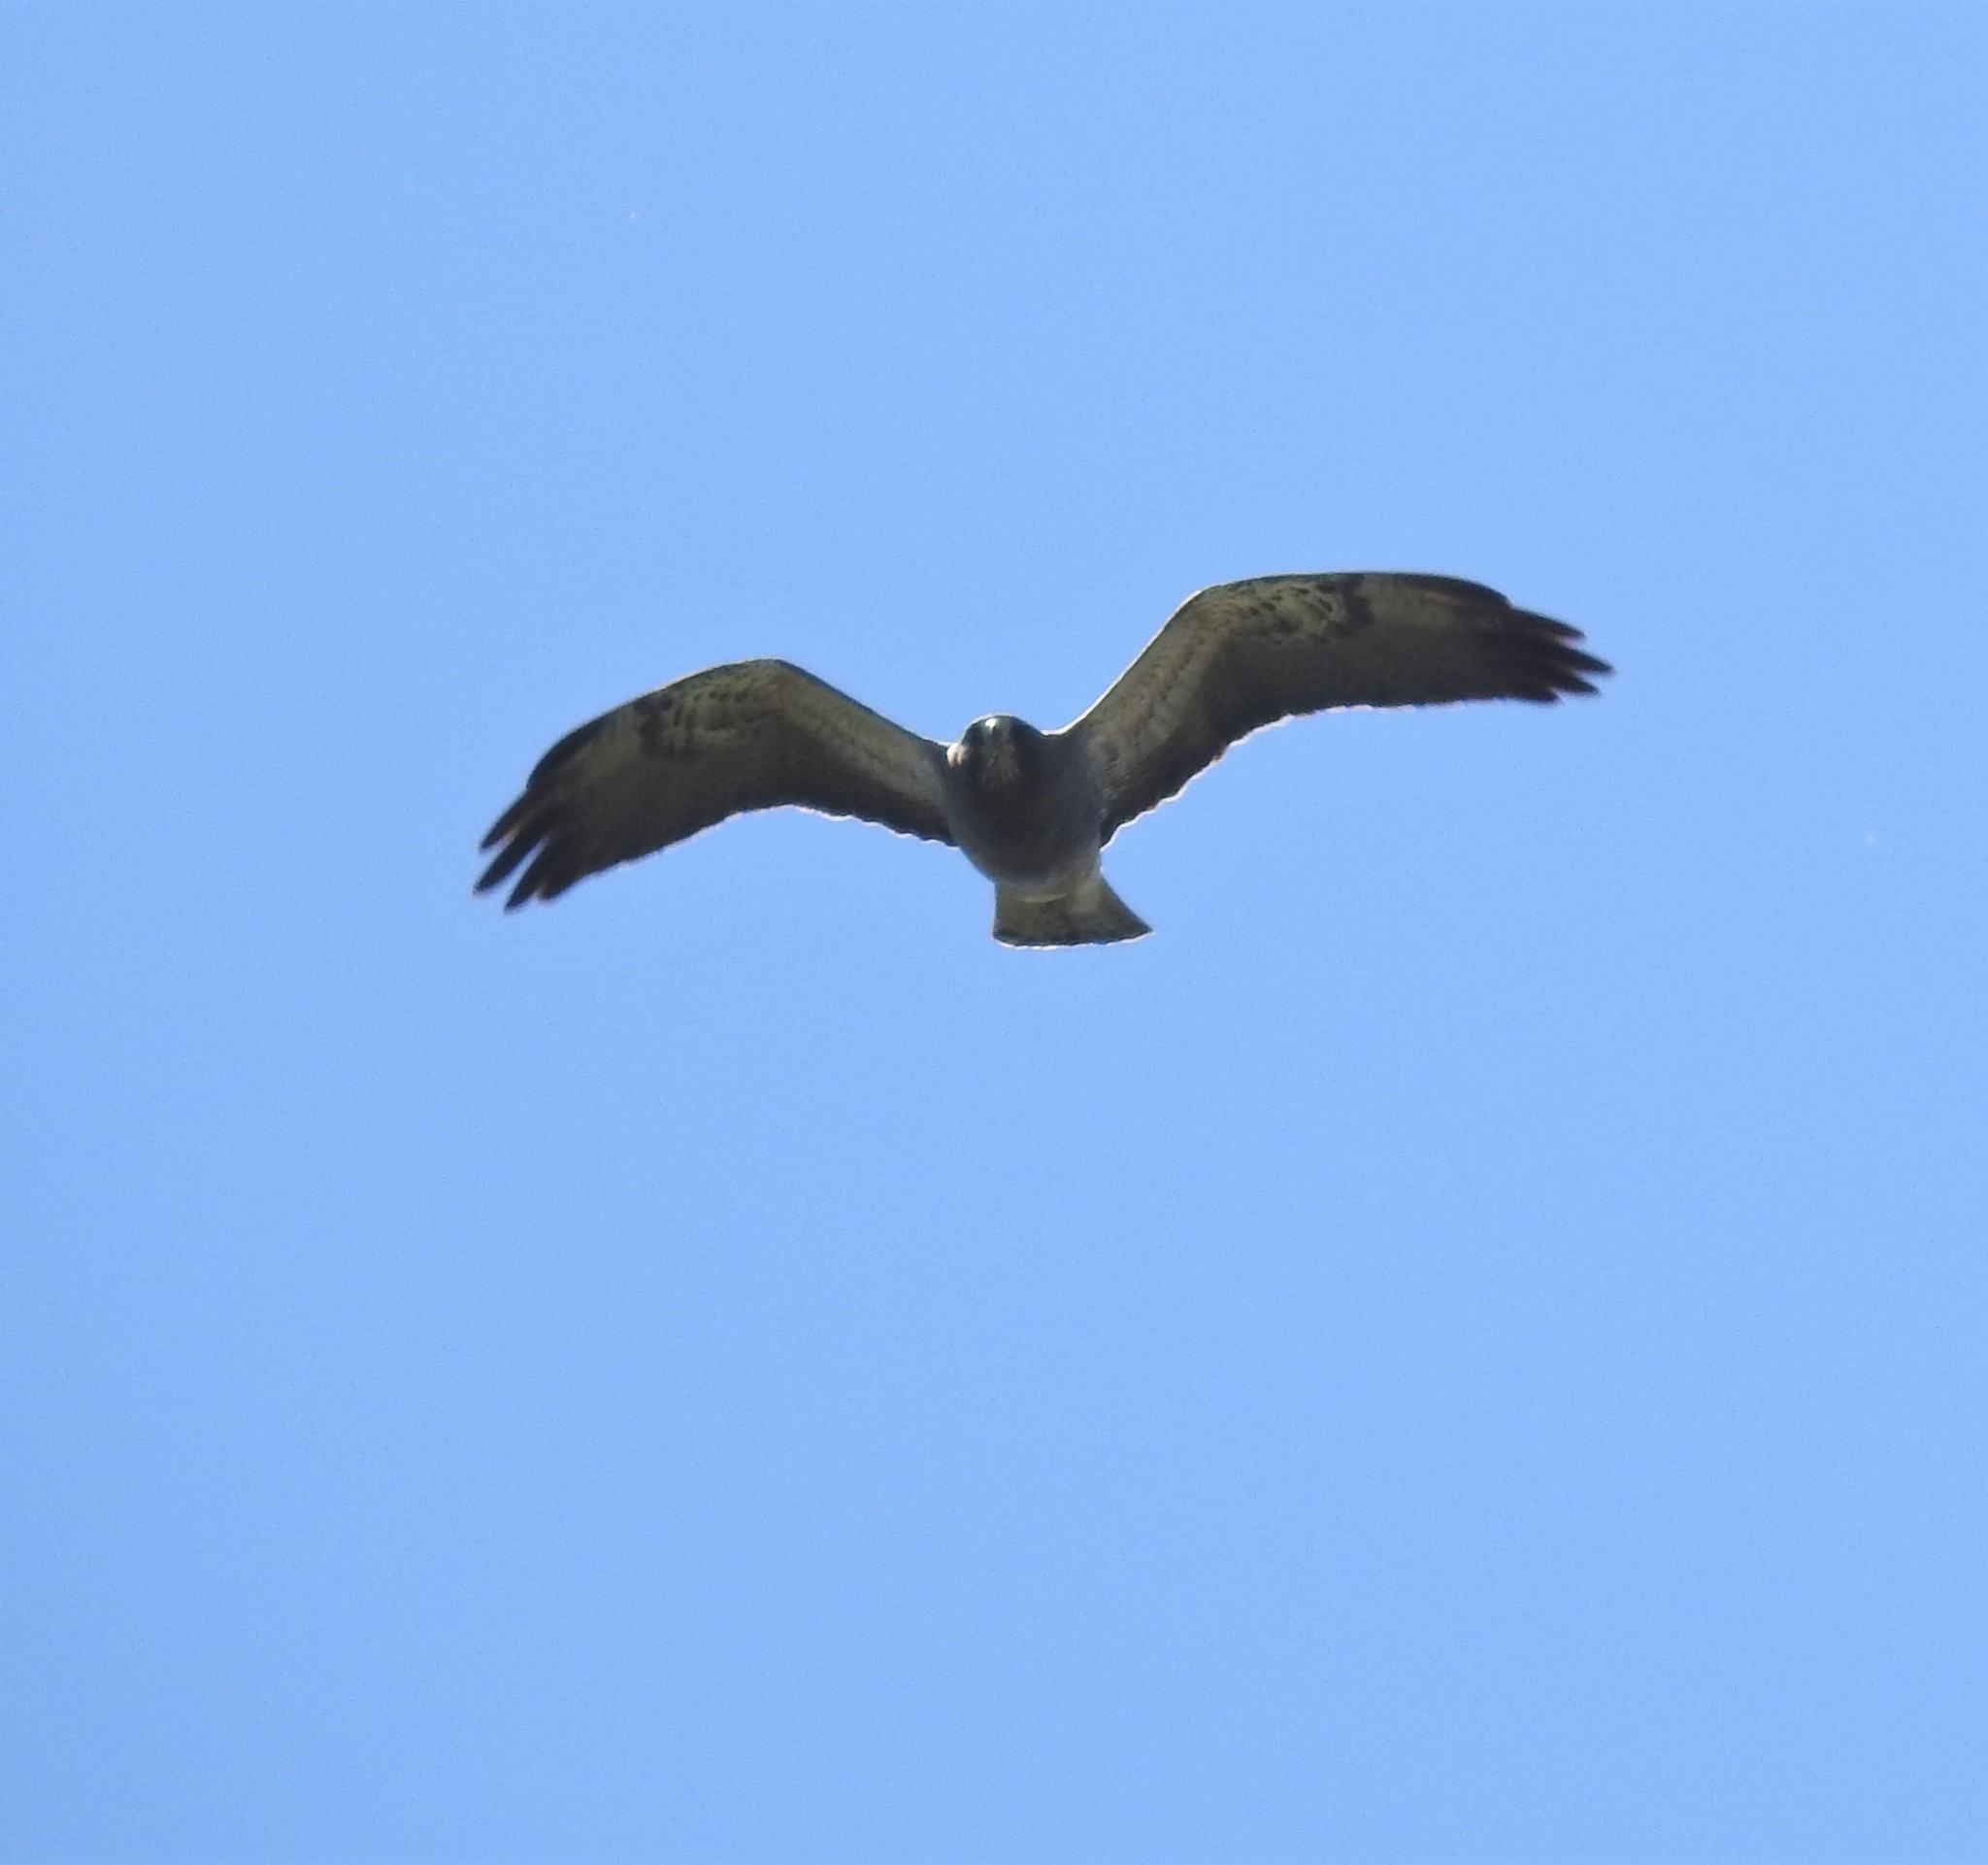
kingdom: Animalia
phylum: Chordata
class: Aves
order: Accipitriformes
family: Accipitridae
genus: Buteo
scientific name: Buteo swainsoni
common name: Swainson's hawk
